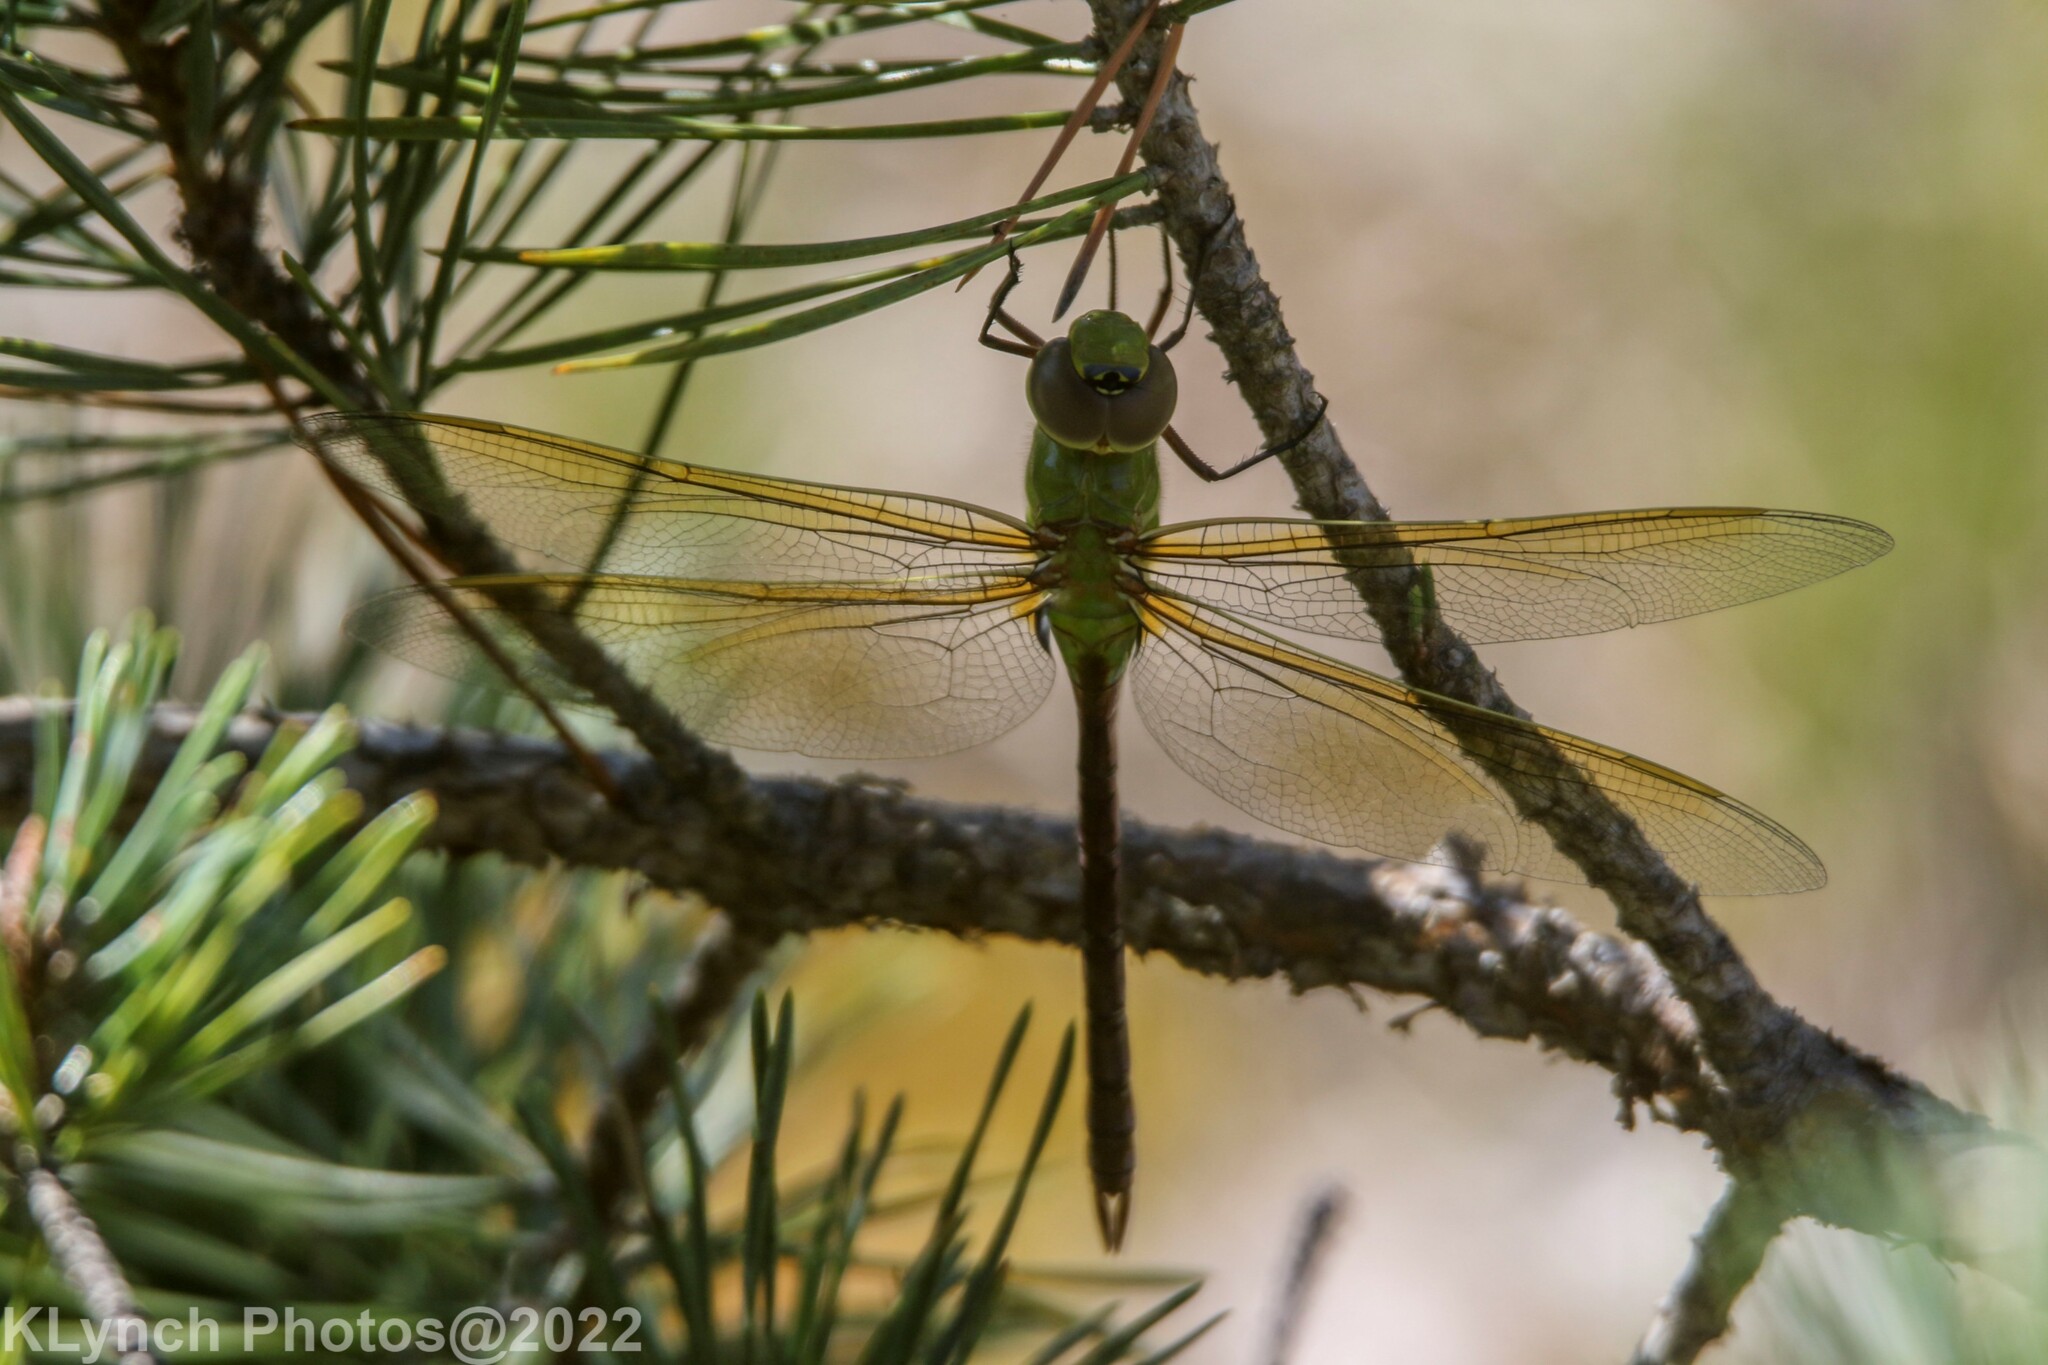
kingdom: Animalia
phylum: Arthropoda
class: Insecta
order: Odonata
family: Aeshnidae
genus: Anax
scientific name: Anax junius
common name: Common green darner
